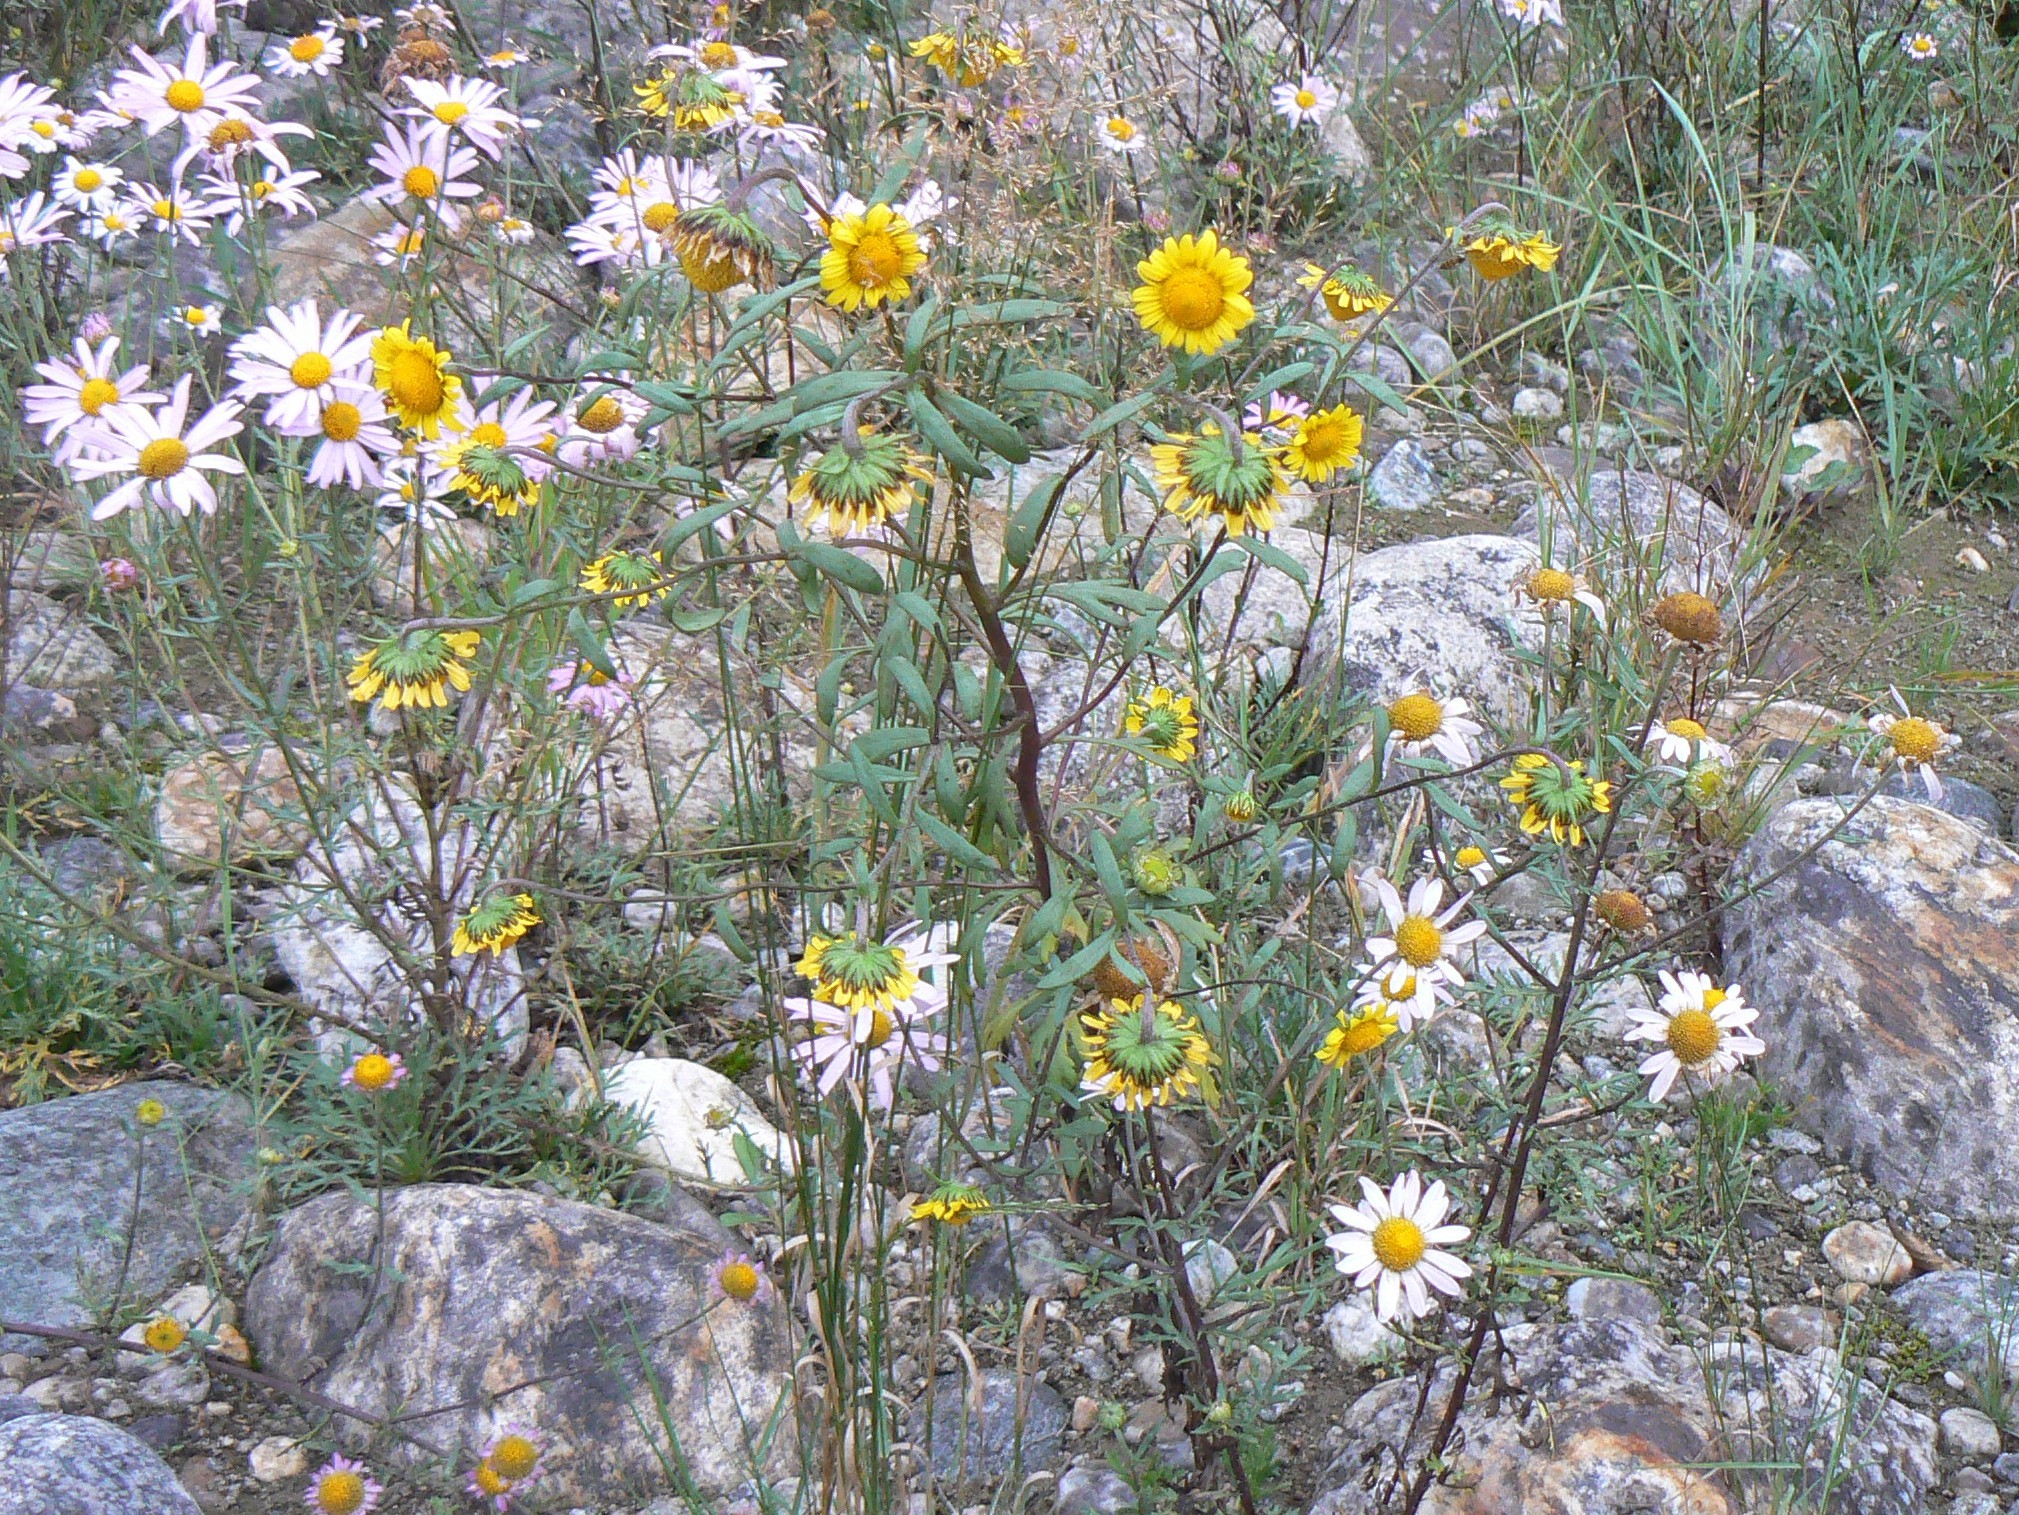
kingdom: Plantae
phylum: Tracheophyta
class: Magnoliopsida
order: Asterales
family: Asteraceae
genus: Tridactylina
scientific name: Tridactylina kirilowii
